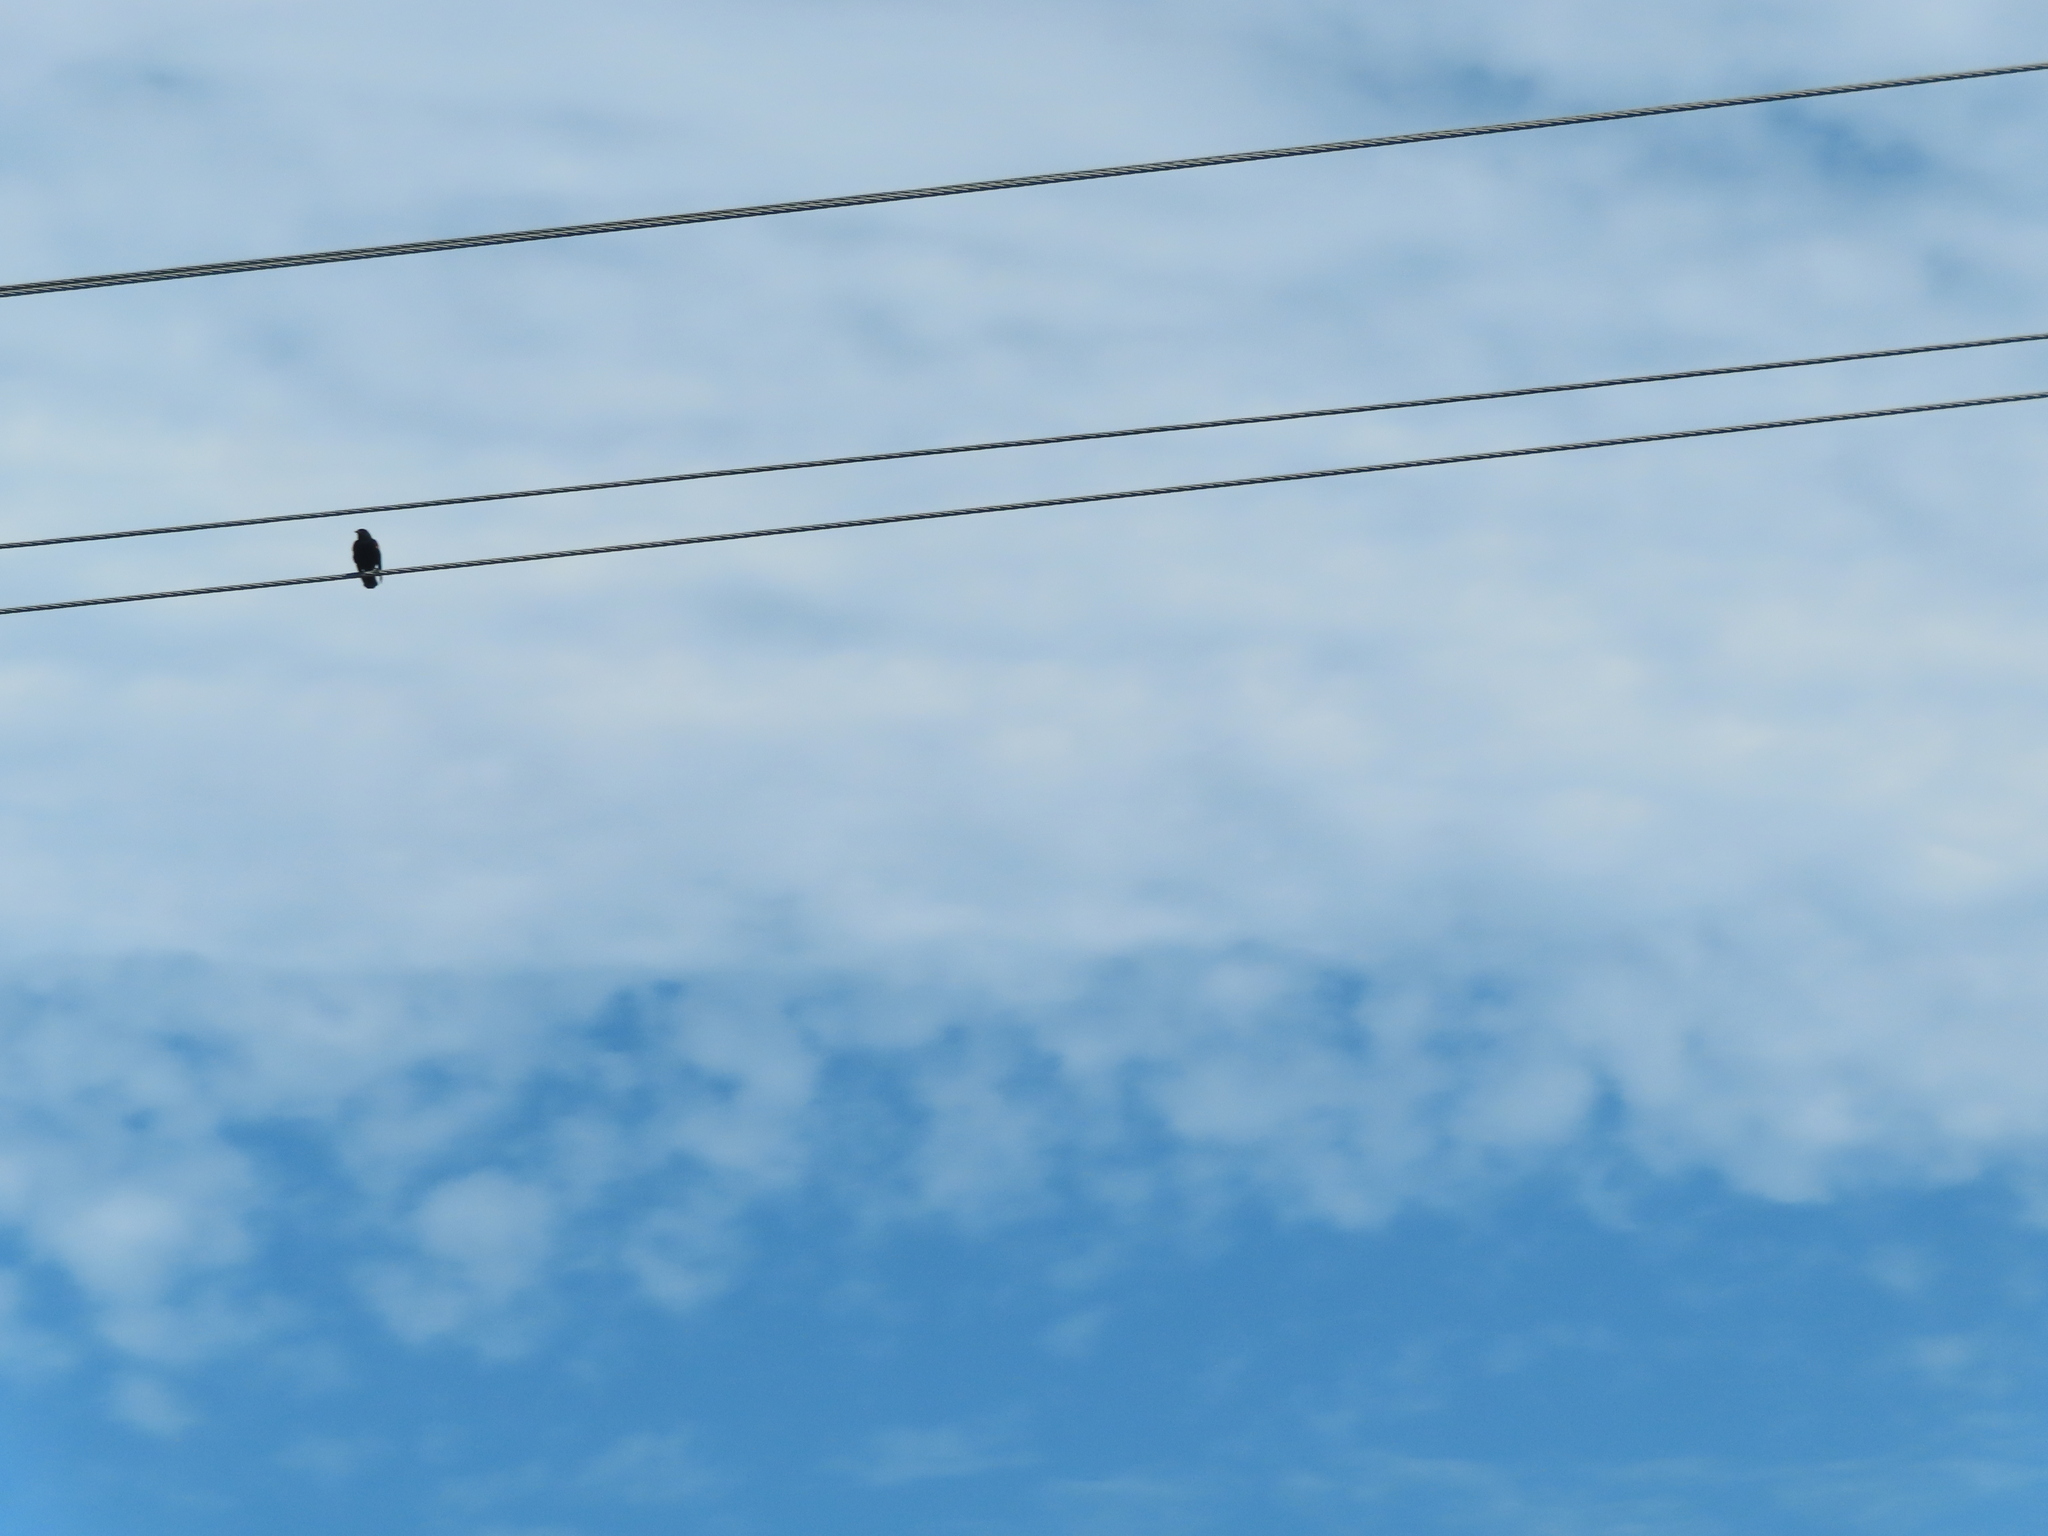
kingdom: Animalia
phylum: Chordata
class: Aves
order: Passeriformes
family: Icteridae
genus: Agelaius
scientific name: Agelaius phoeniceus
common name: Red-winged blackbird
